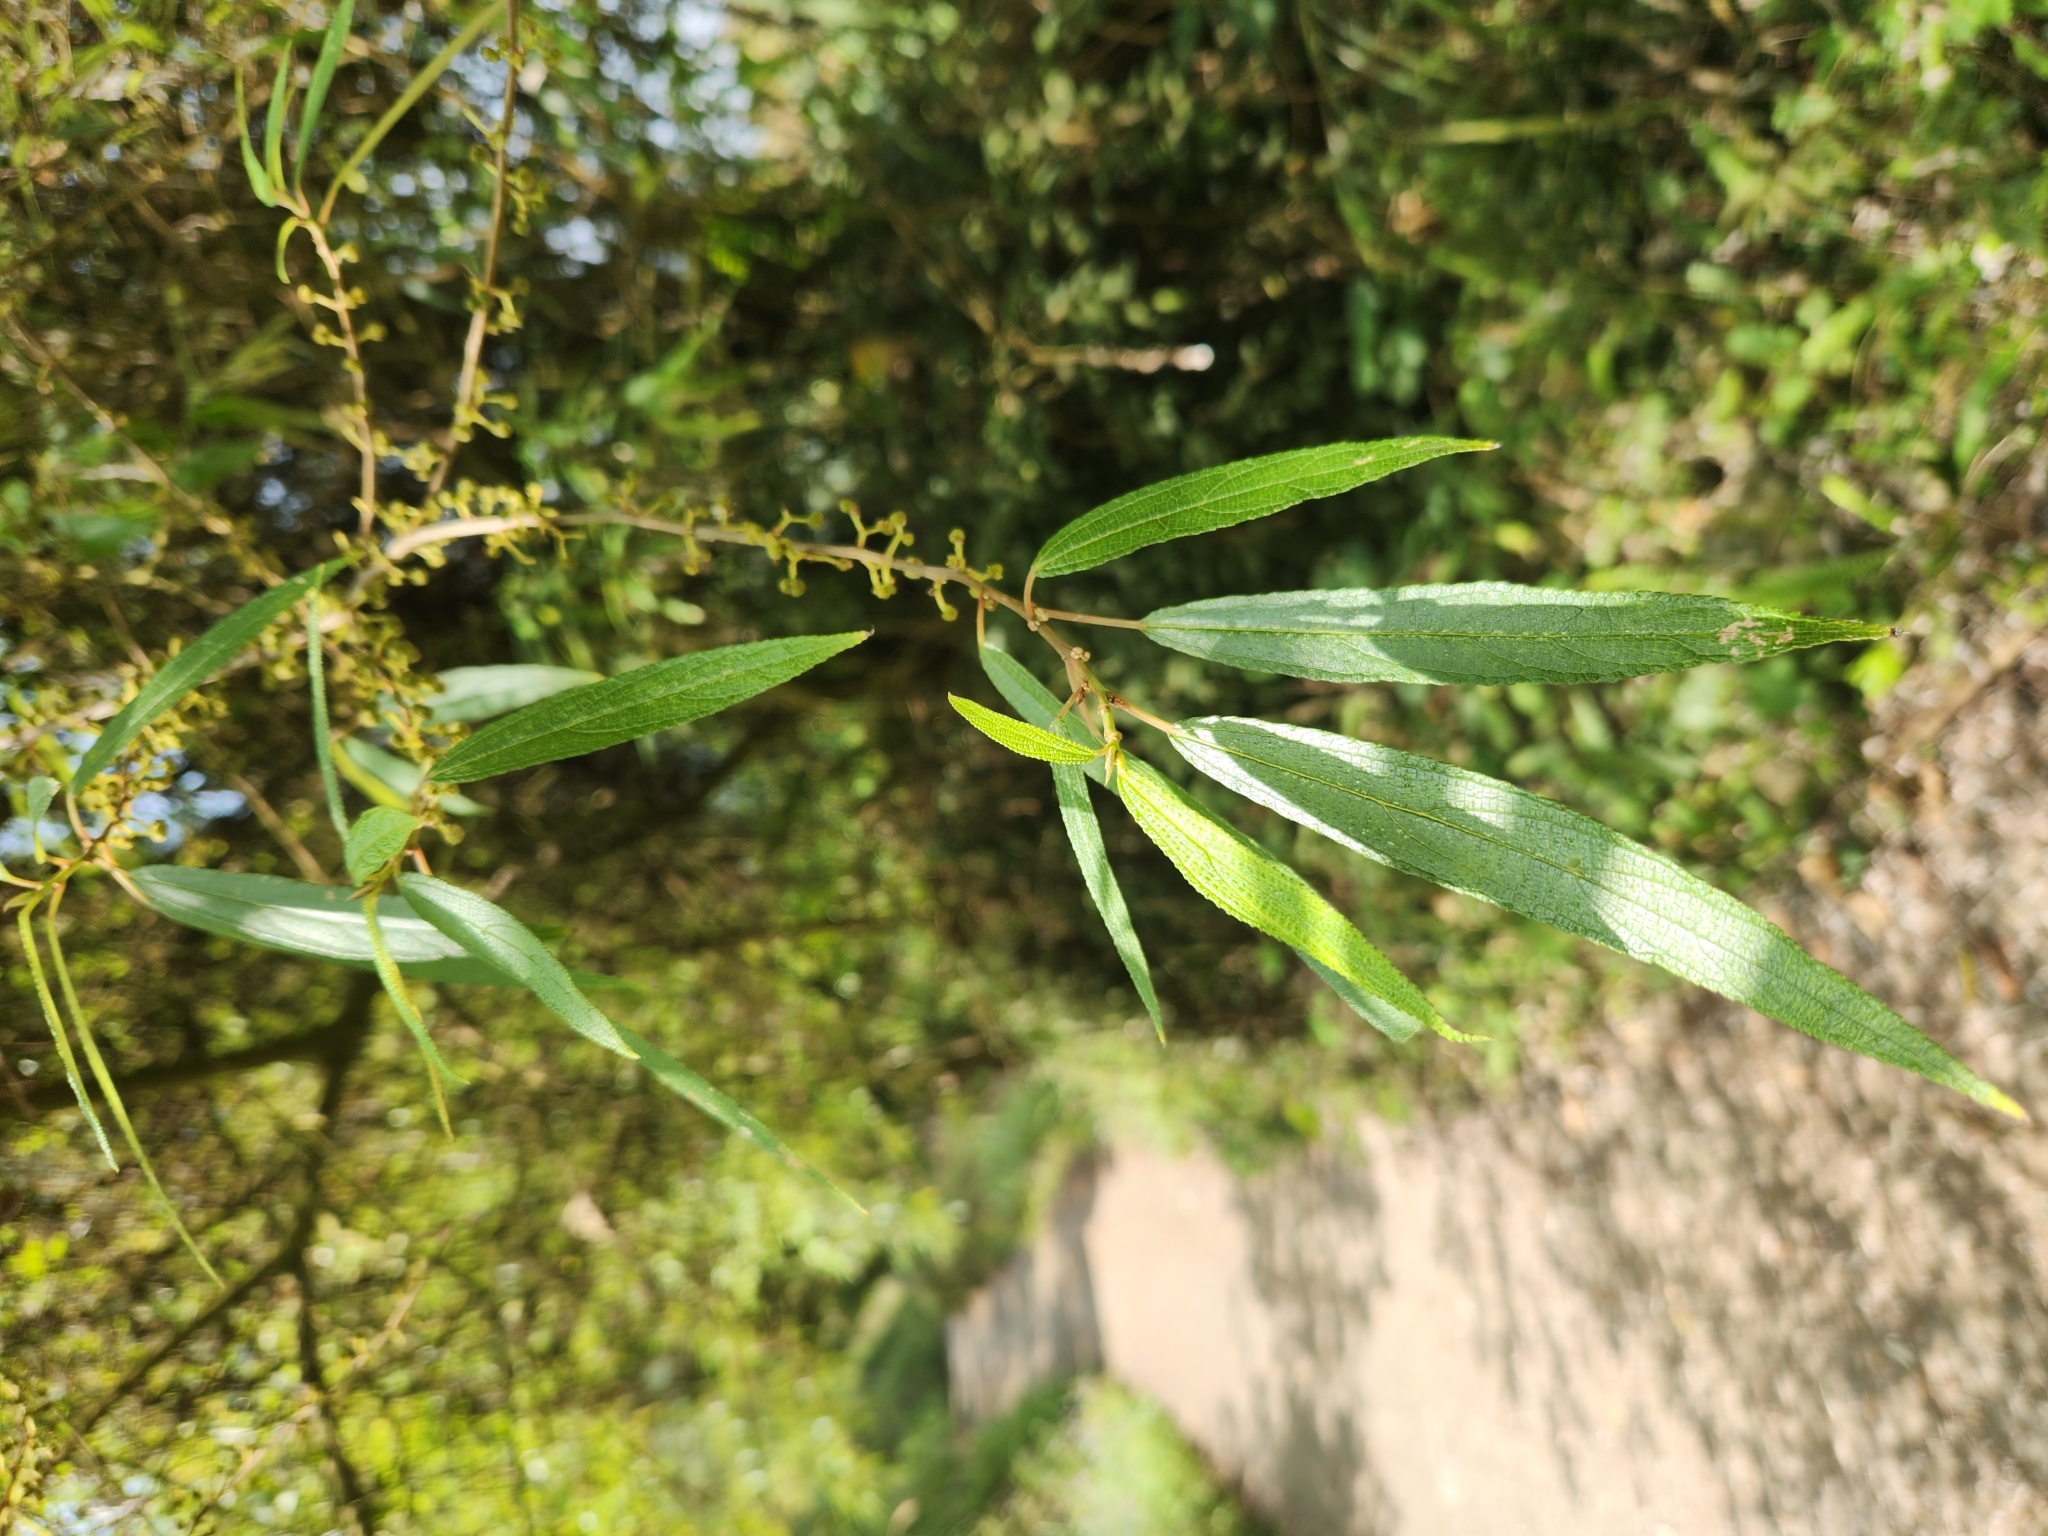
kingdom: Plantae
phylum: Tracheophyta
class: Magnoliopsida
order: Rosales
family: Urticaceae
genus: Debregeasia
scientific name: Debregeasia orientalis
